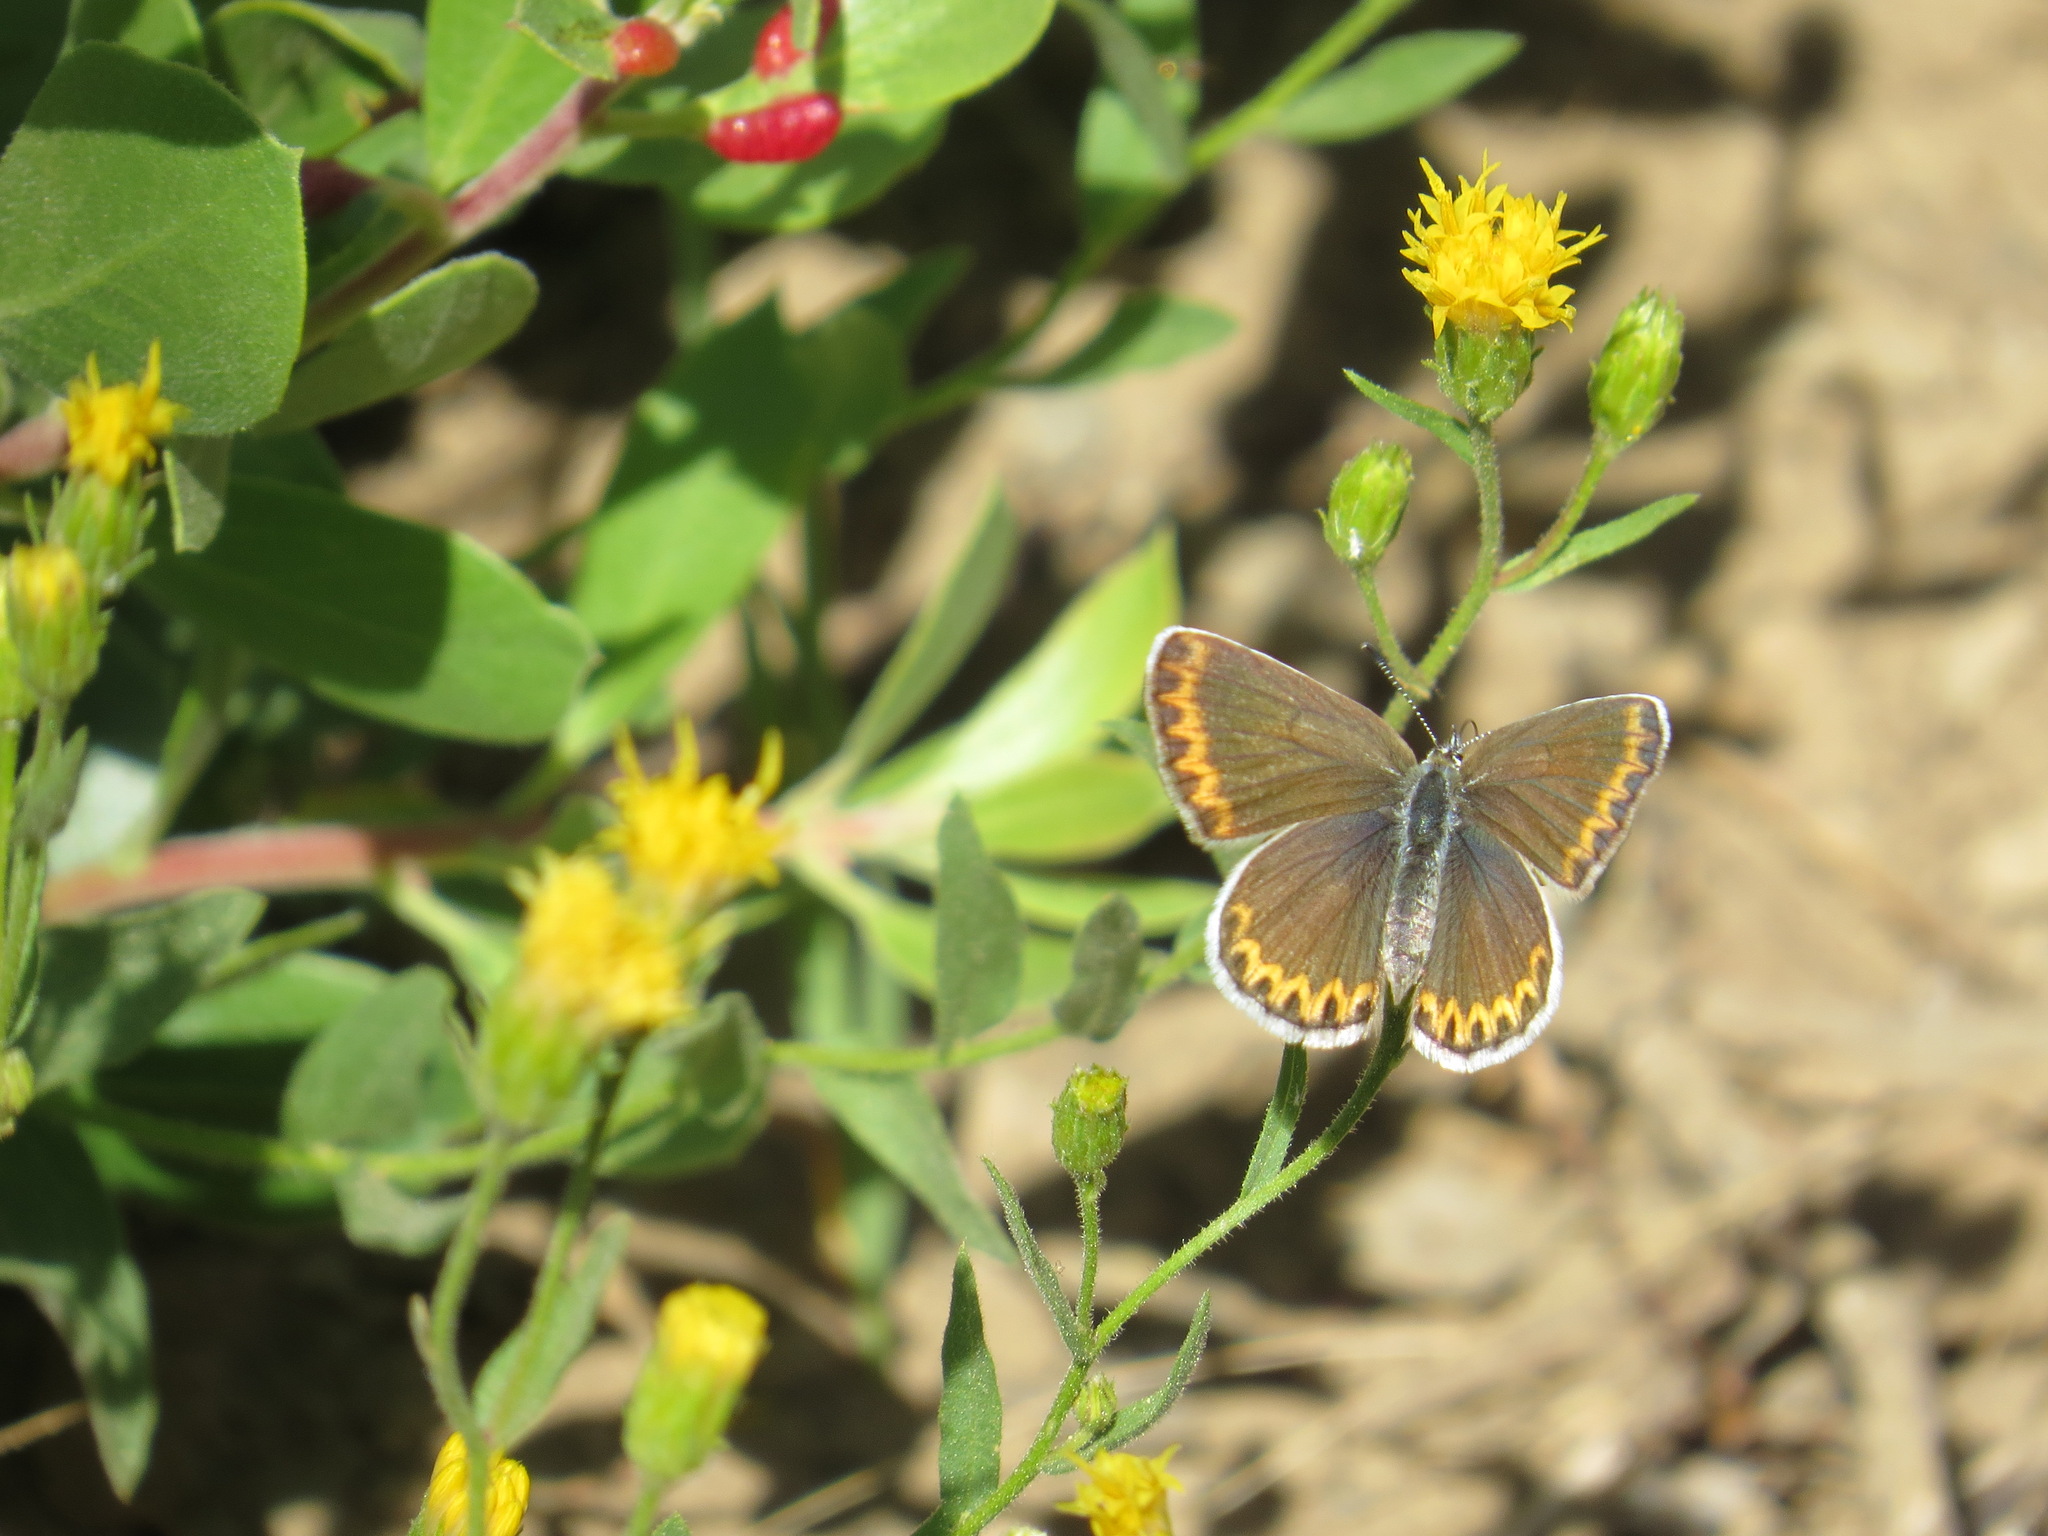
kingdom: Animalia
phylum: Arthropoda
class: Insecta
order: Lepidoptera
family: Lycaenidae
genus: Lycaeides
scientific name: Lycaeides anna
